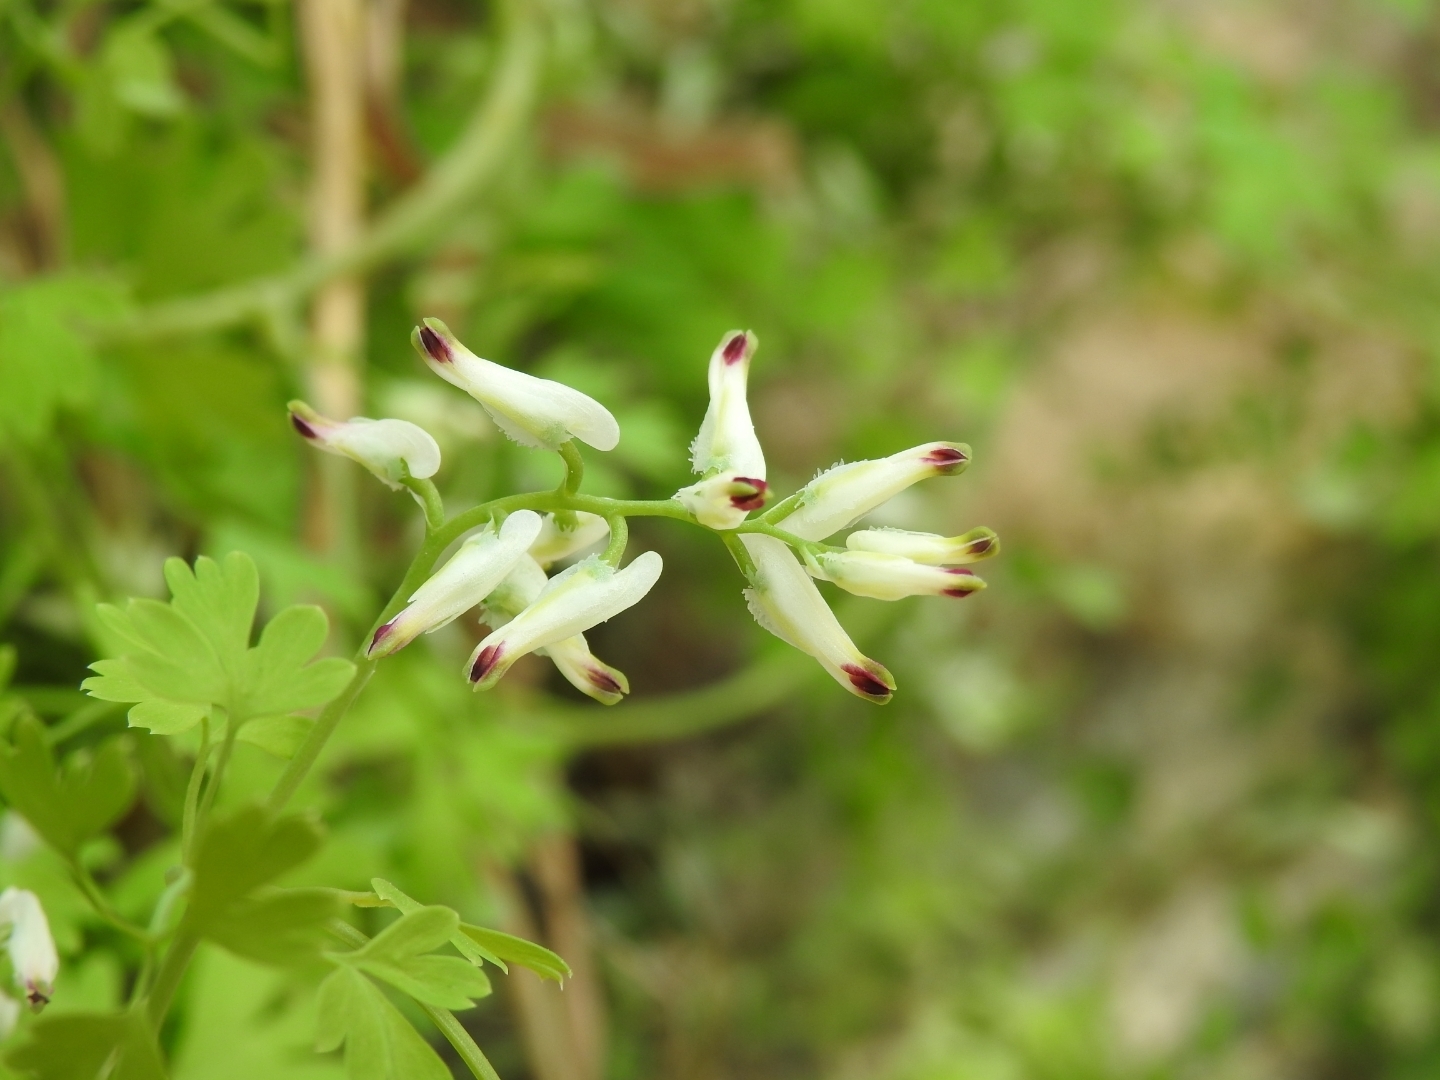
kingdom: Plantae
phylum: Tracheophyta
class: Magnoliopsida
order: Ranunculales
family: Papaveraceae
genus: Fumaria
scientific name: Fumaria capreolata
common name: White ramping-fumitory
